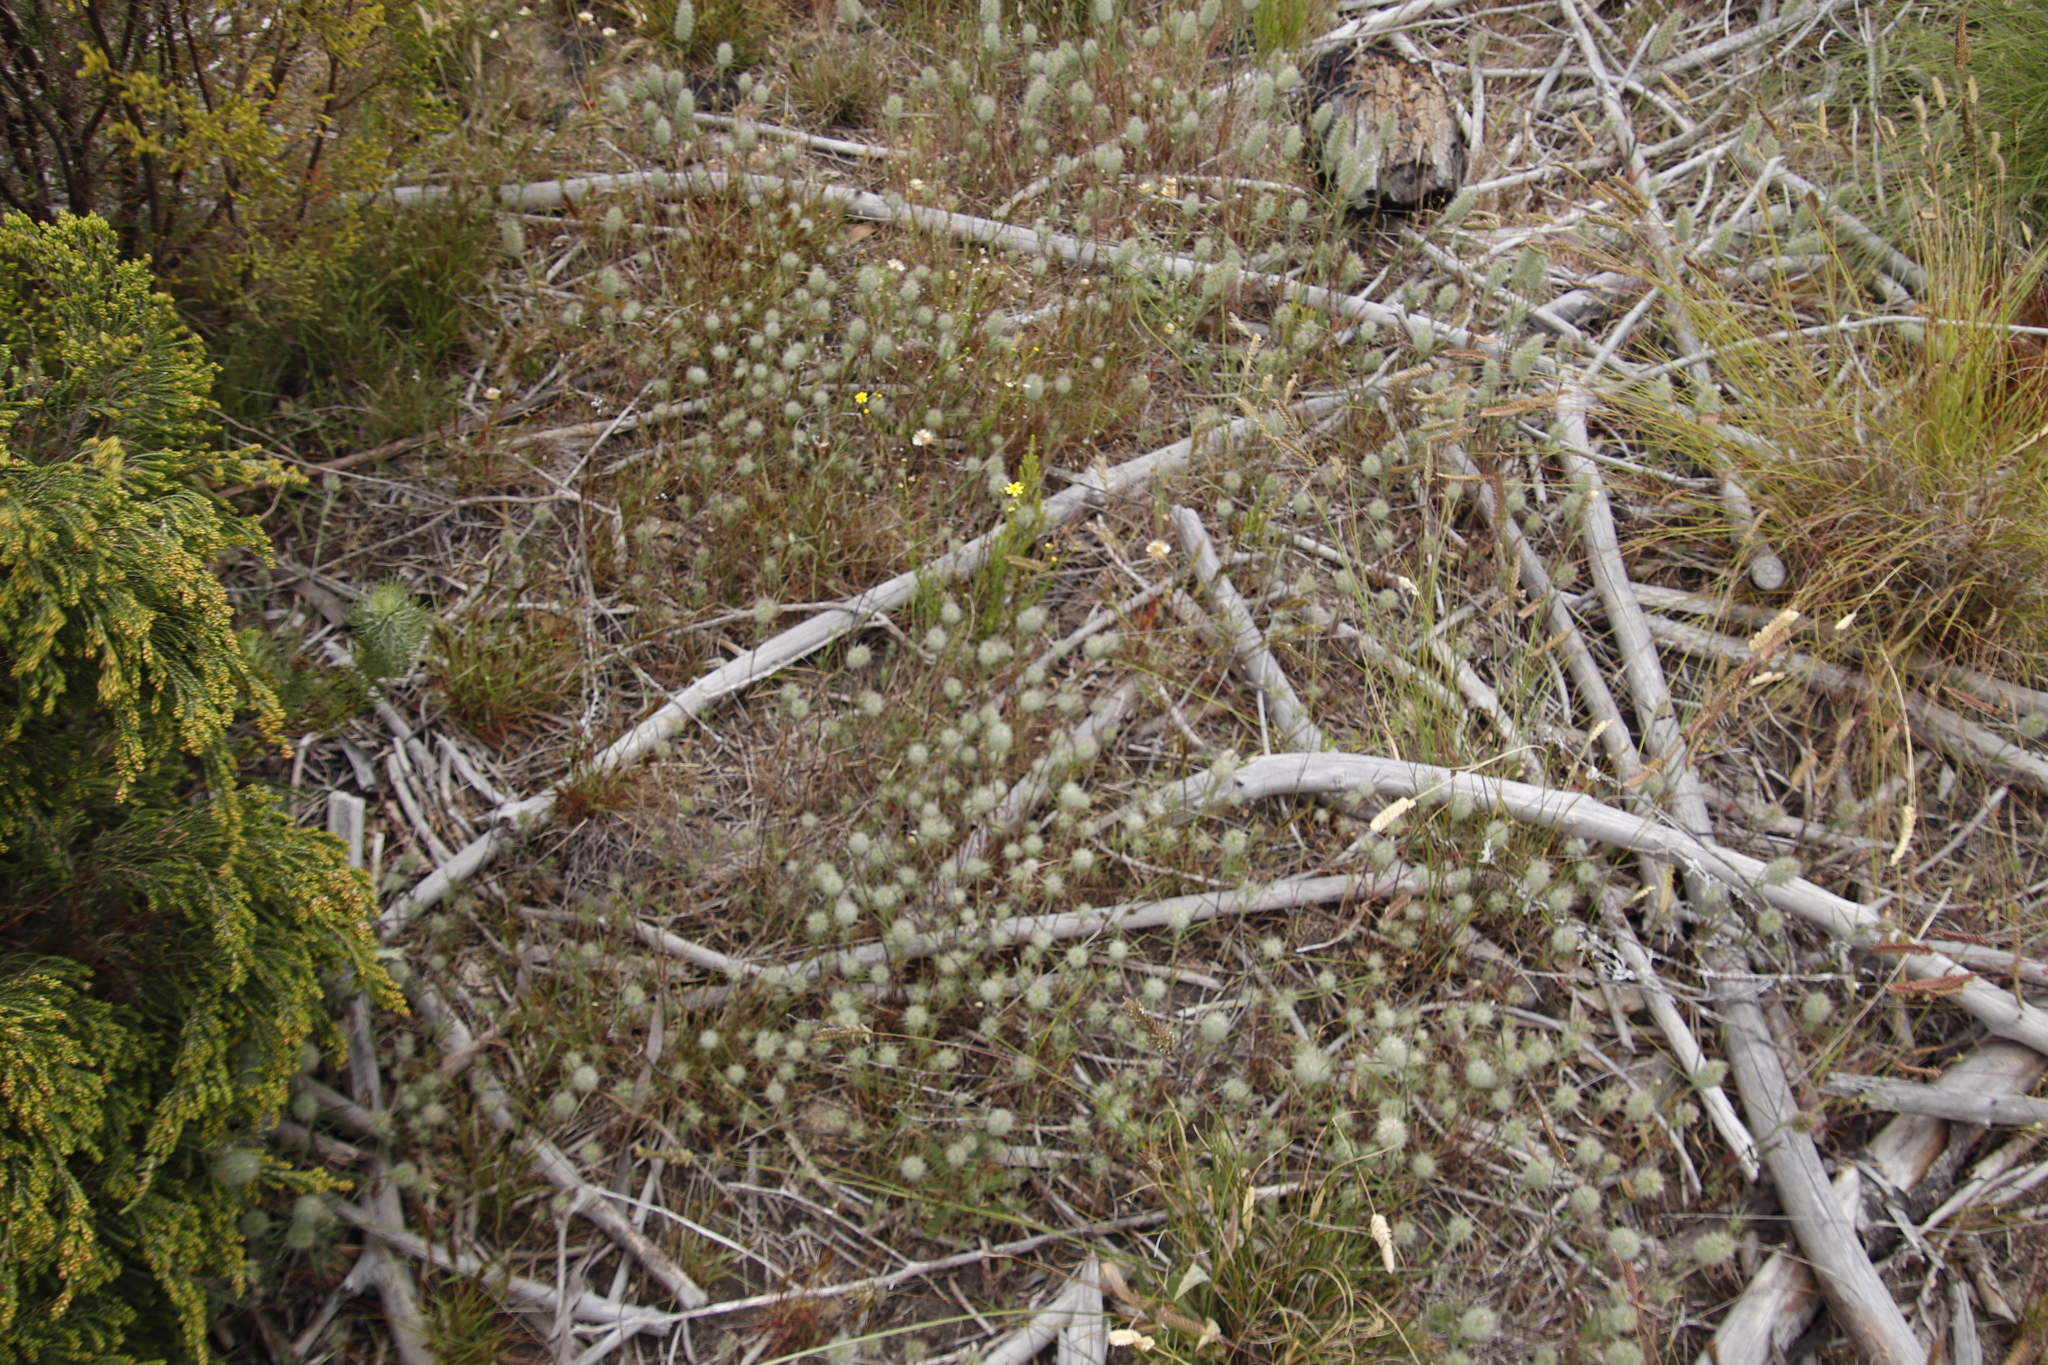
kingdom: Plantae
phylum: Tracheophyta
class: Magnoliopsida
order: Fabales
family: Fabaceae
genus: Trifolium
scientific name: Trifolium angustifolium
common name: Narrow clover
